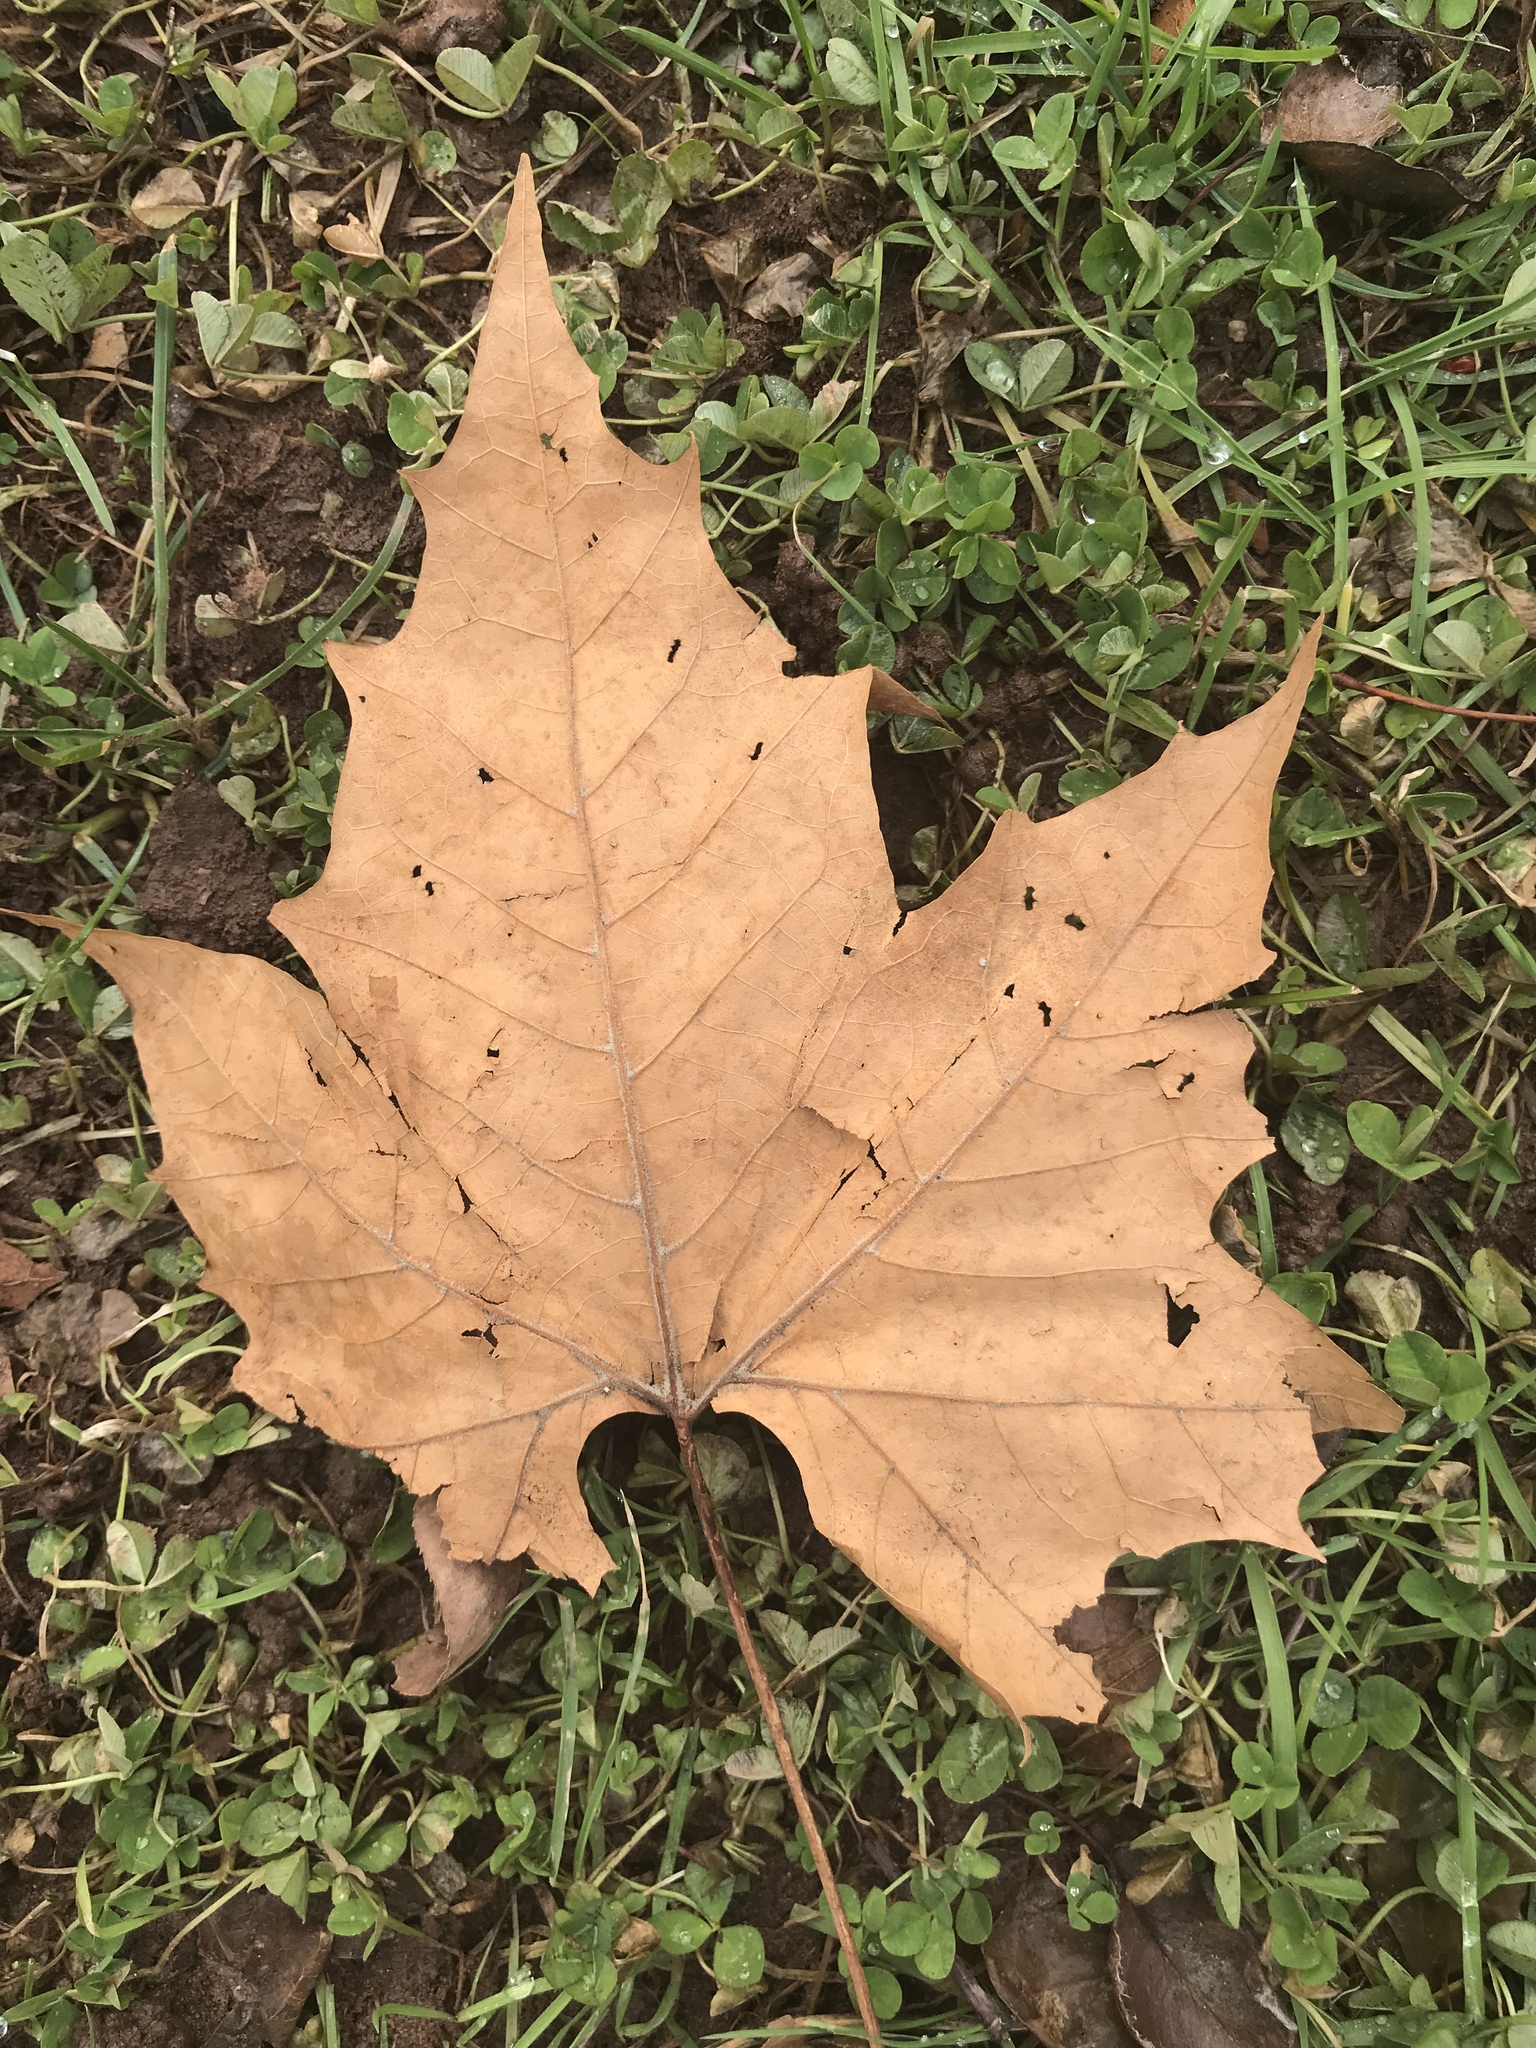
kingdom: Plantae
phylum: Tracheophyta
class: Magnoliopsida
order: Proteales
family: Platanaceae
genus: Platanus
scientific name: Platanus occidentalis
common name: American sycamore
